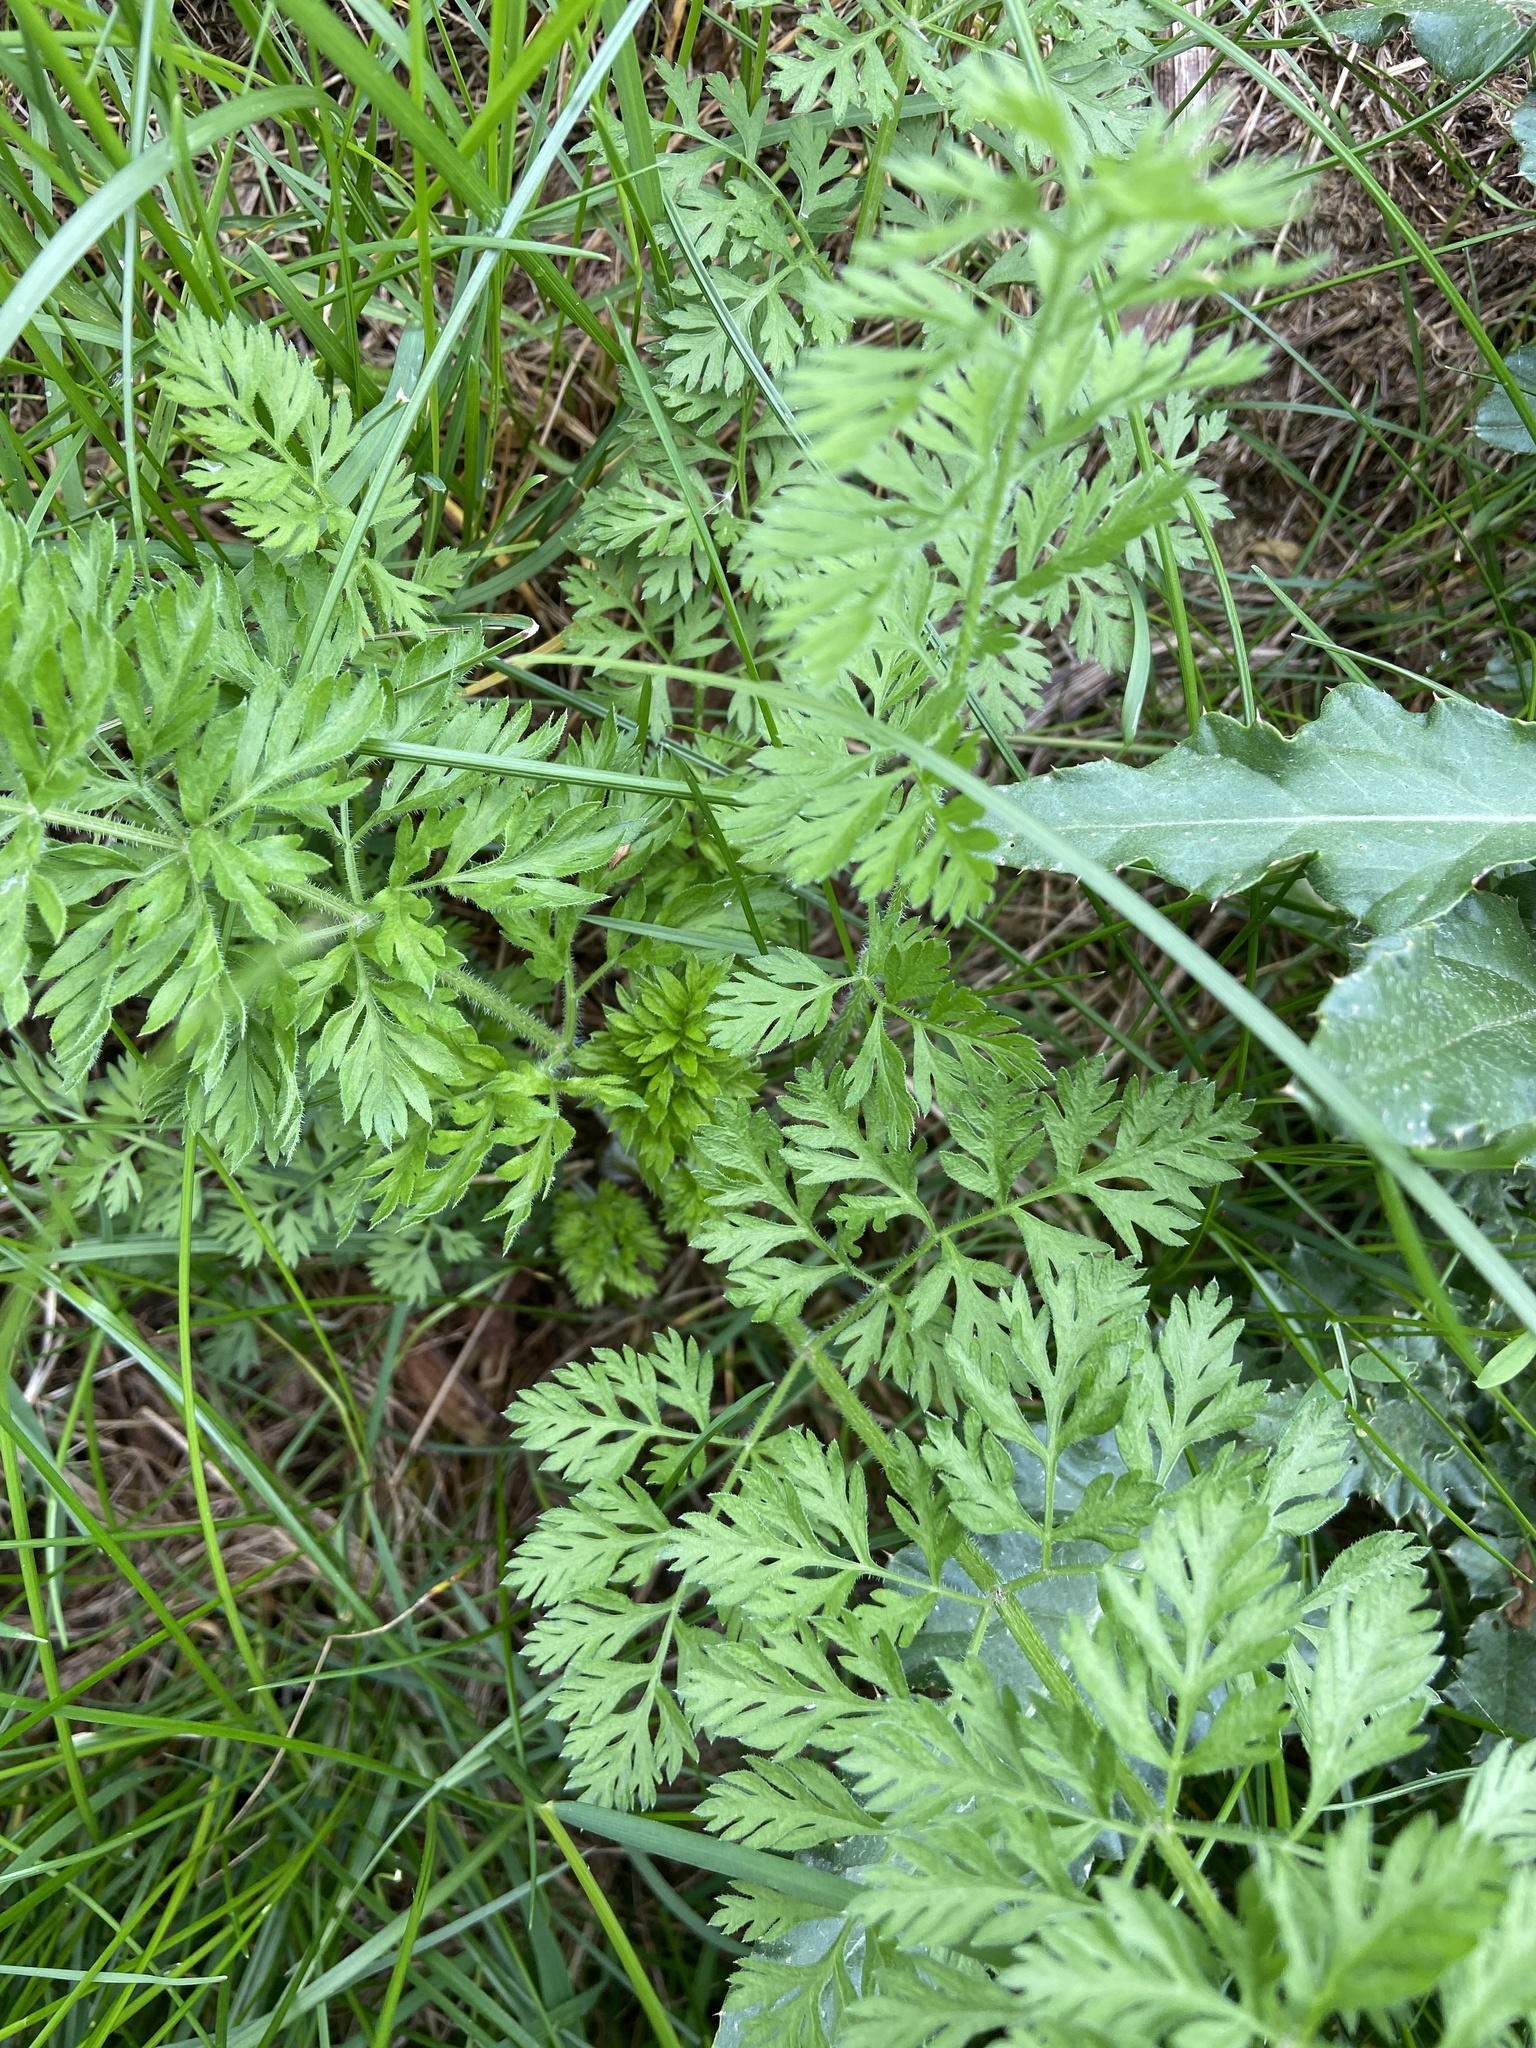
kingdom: Plantae
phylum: Tracheophyta
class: Magnoliopsida
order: Apiales
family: Apiaceae
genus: Daucus
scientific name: Daucus carota
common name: Wild carrot
